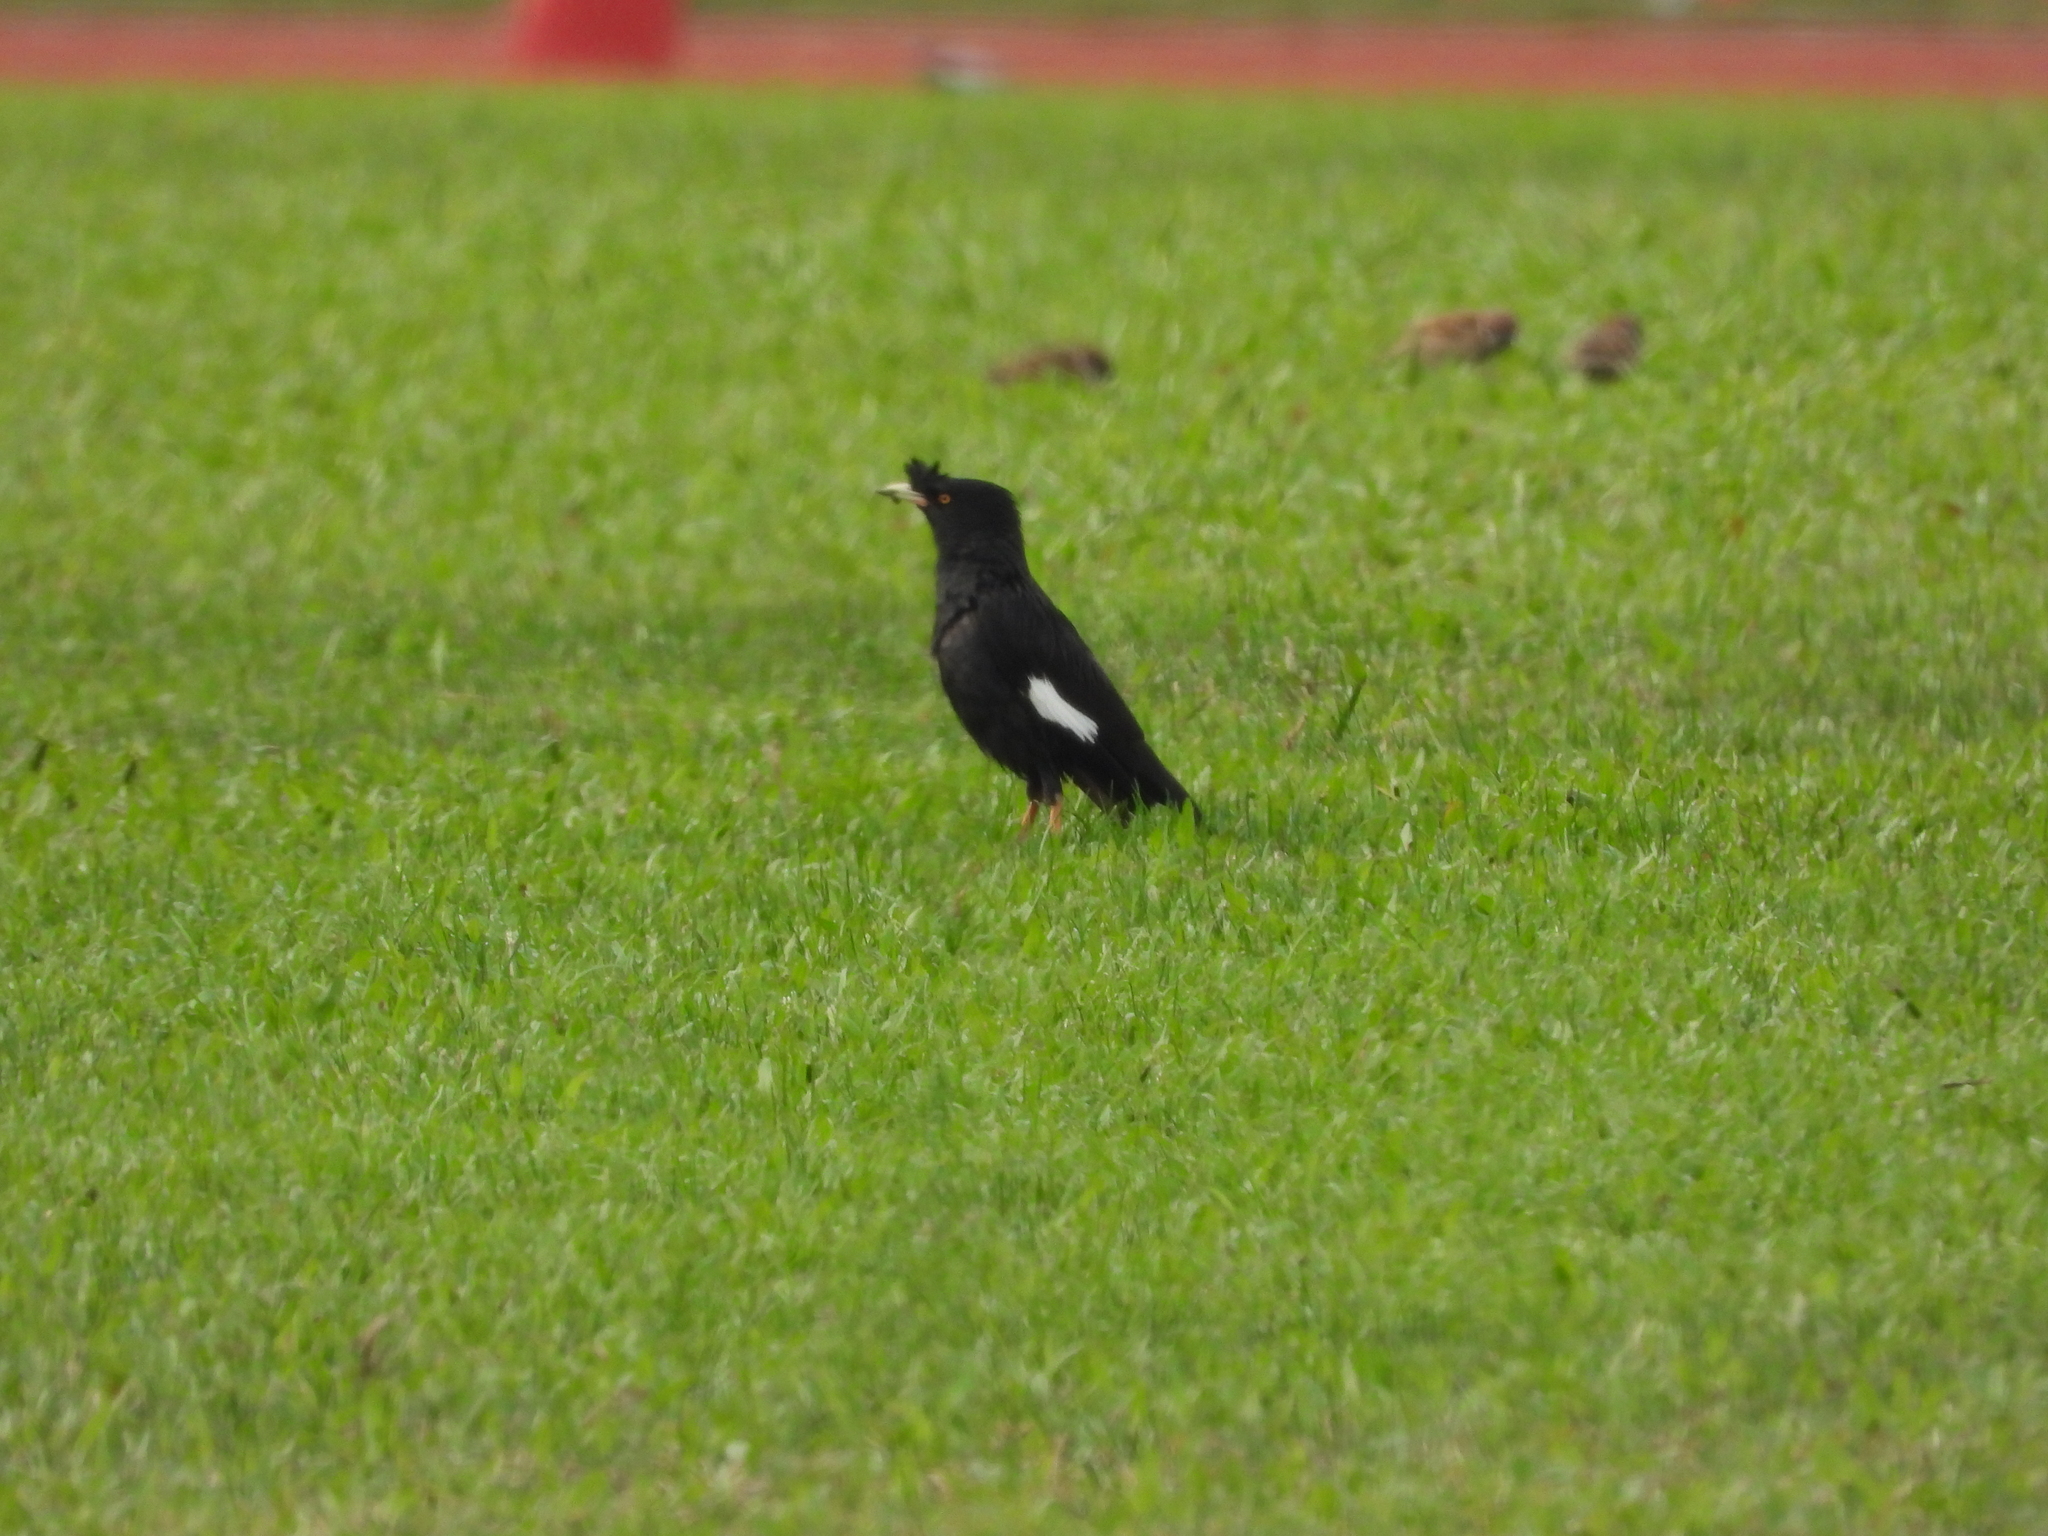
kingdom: Animalia
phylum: Chordata
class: Aves
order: Passeriformes
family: Sturnidae
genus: Acridotheres
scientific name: Acridotheres cristatellus
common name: Crested myna
